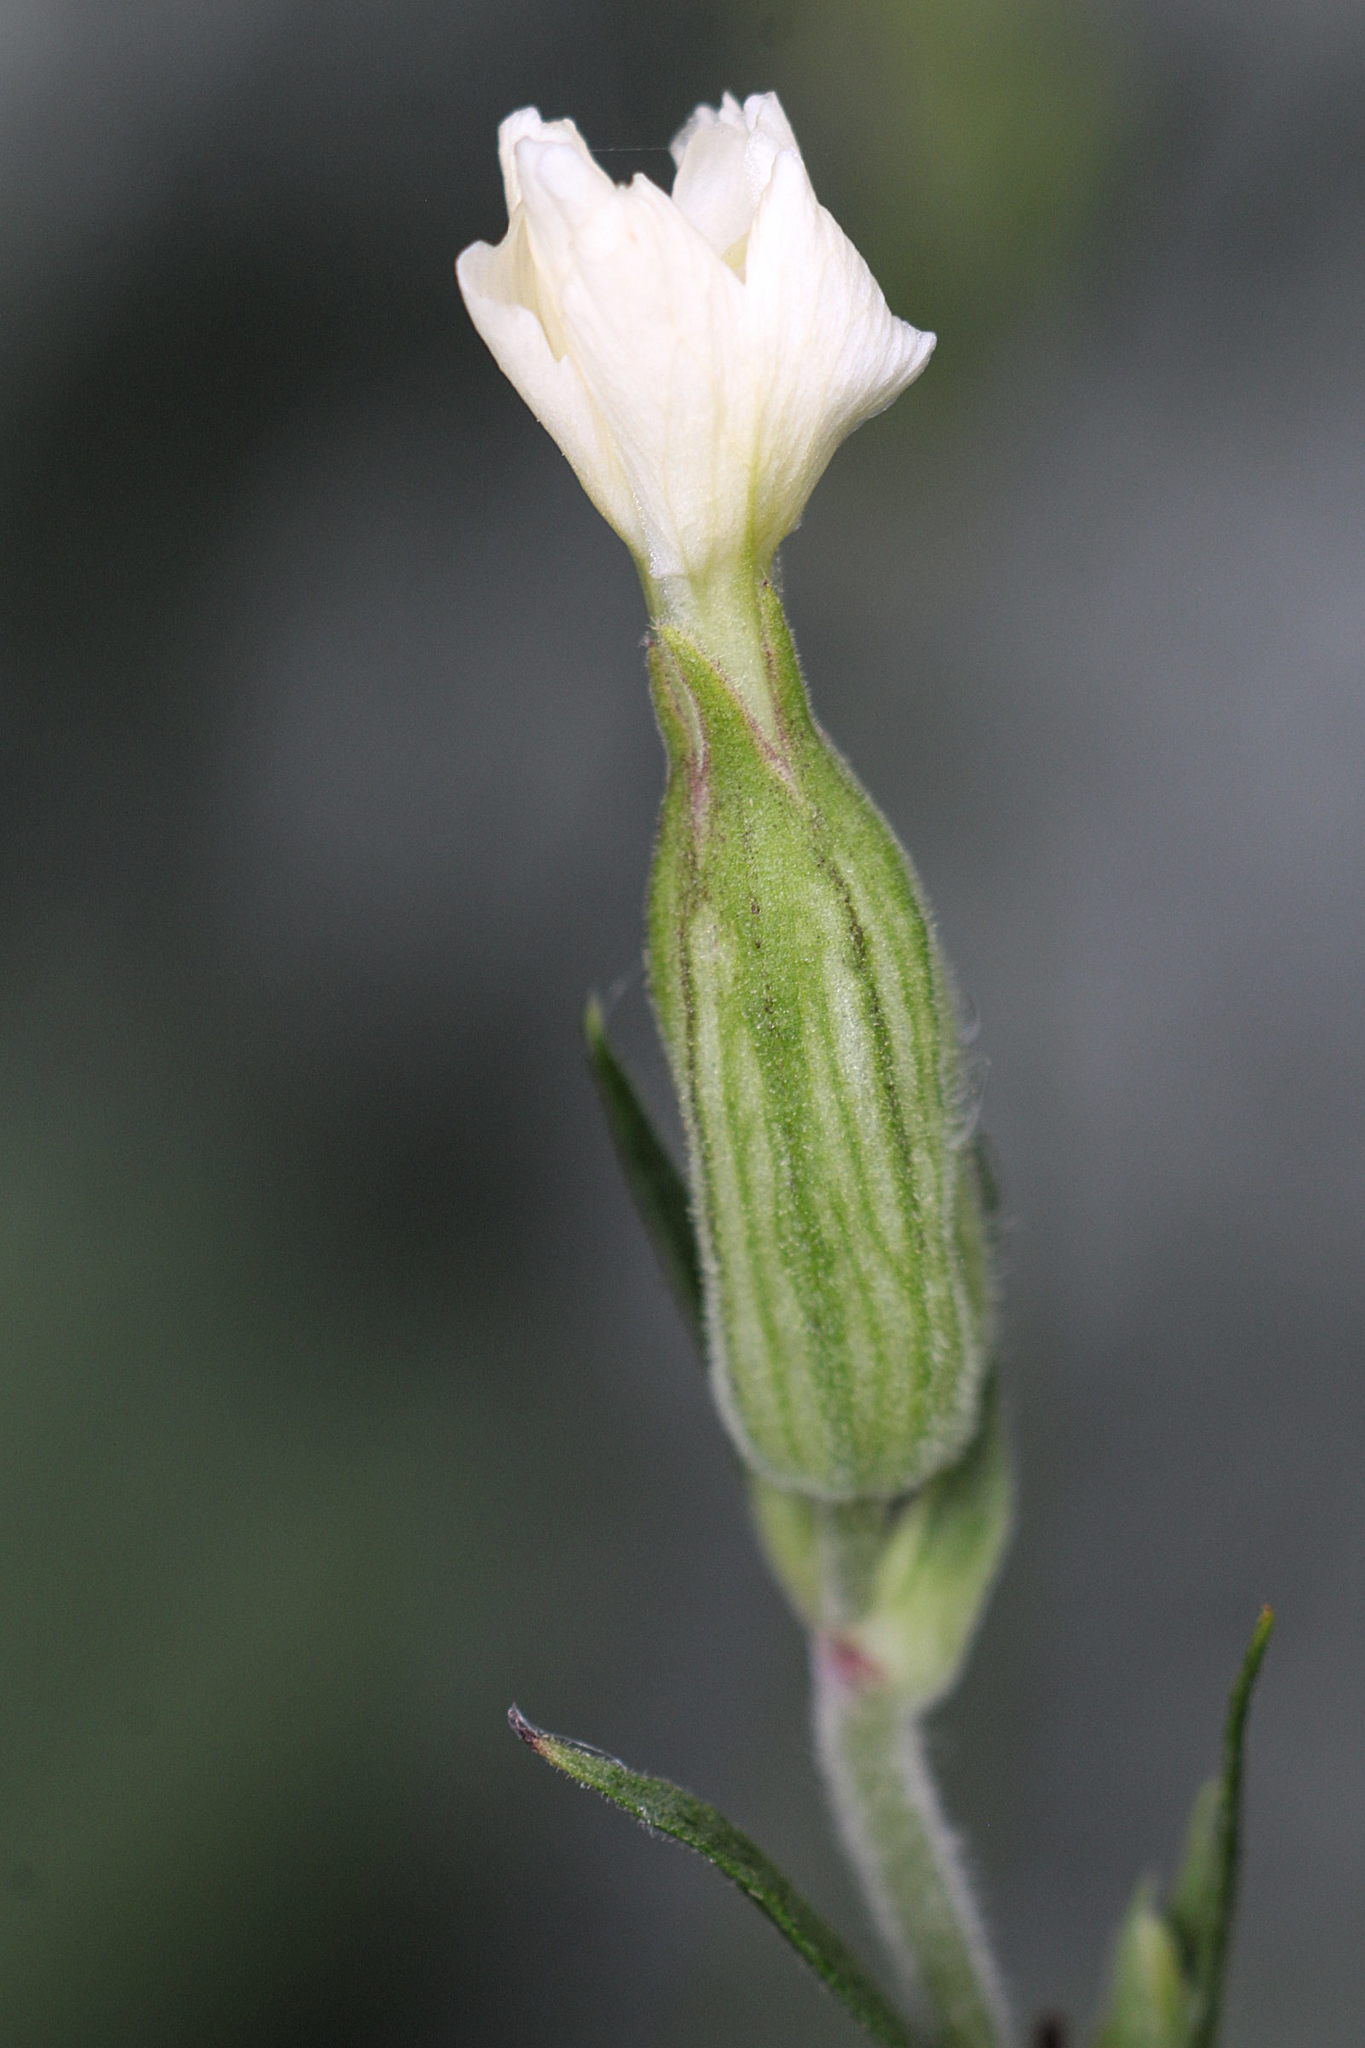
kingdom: Plantae
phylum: Tracheophyta
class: Magnoliopsida
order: Caryophyllales
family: Caryophyllaceae
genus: Silene
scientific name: Silene latifolia
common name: White campion
